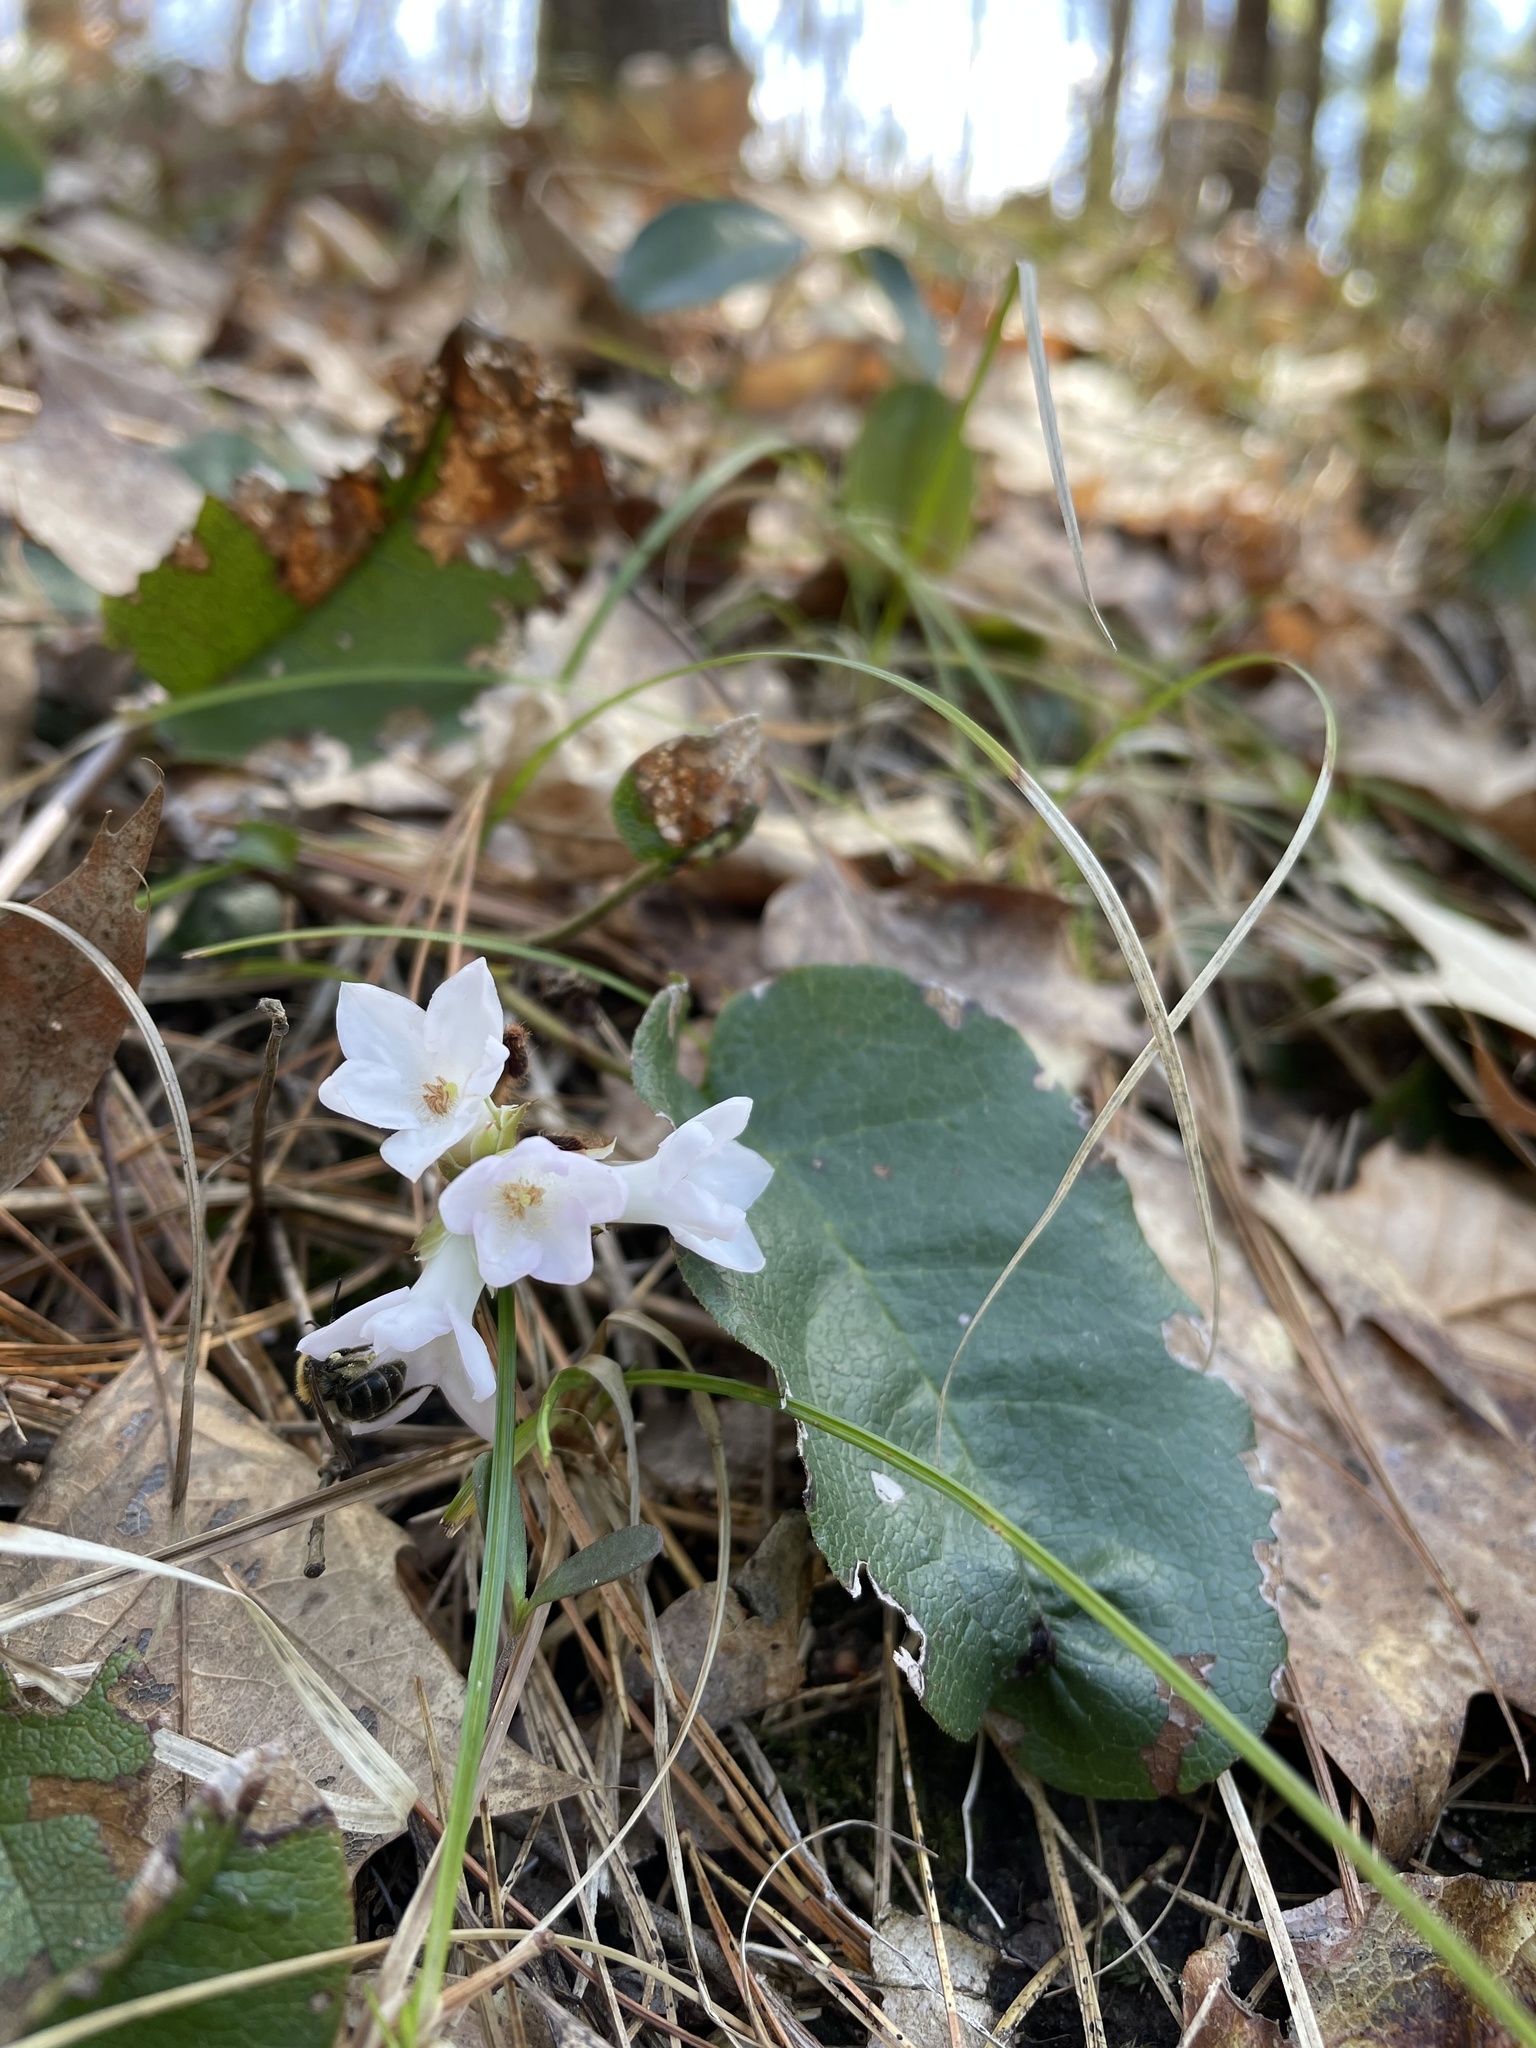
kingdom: Plantae
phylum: Tracheophyta
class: Magnoliopsida
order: Ericales
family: Ericaceae
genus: Epigaea
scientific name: Epigaea repens
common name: Gravelroot
